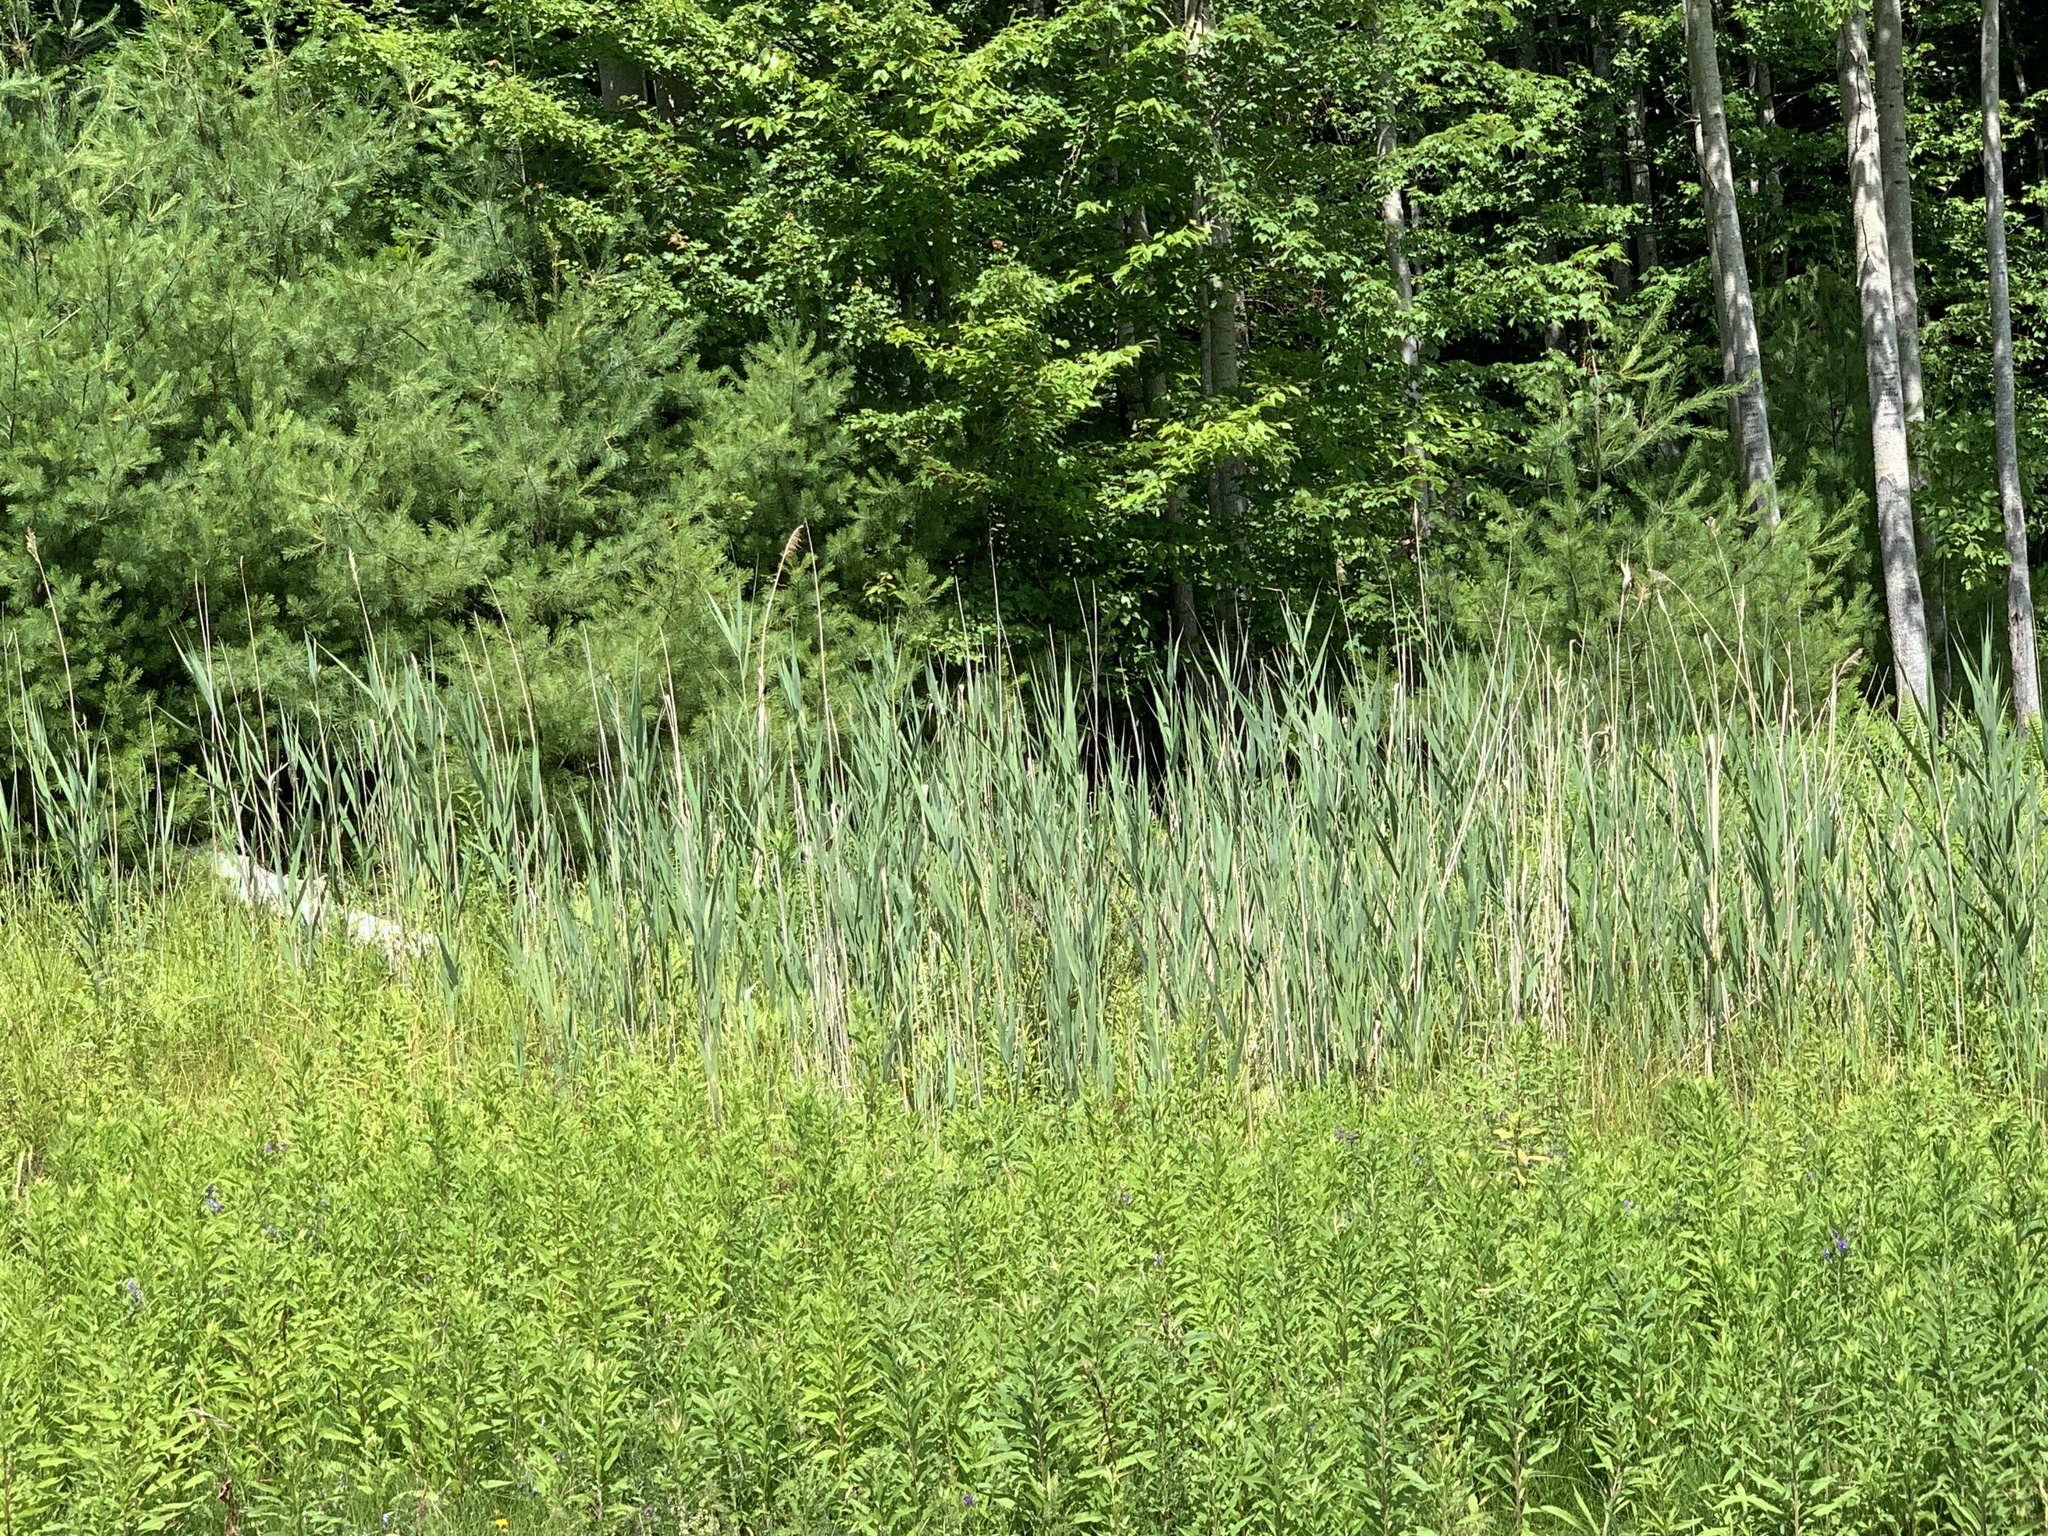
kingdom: Plantae
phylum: Tracheophyta
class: Liliopsida
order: Poales
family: Poaceae
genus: Phragmites
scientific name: Phragmites australis
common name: Common reed
